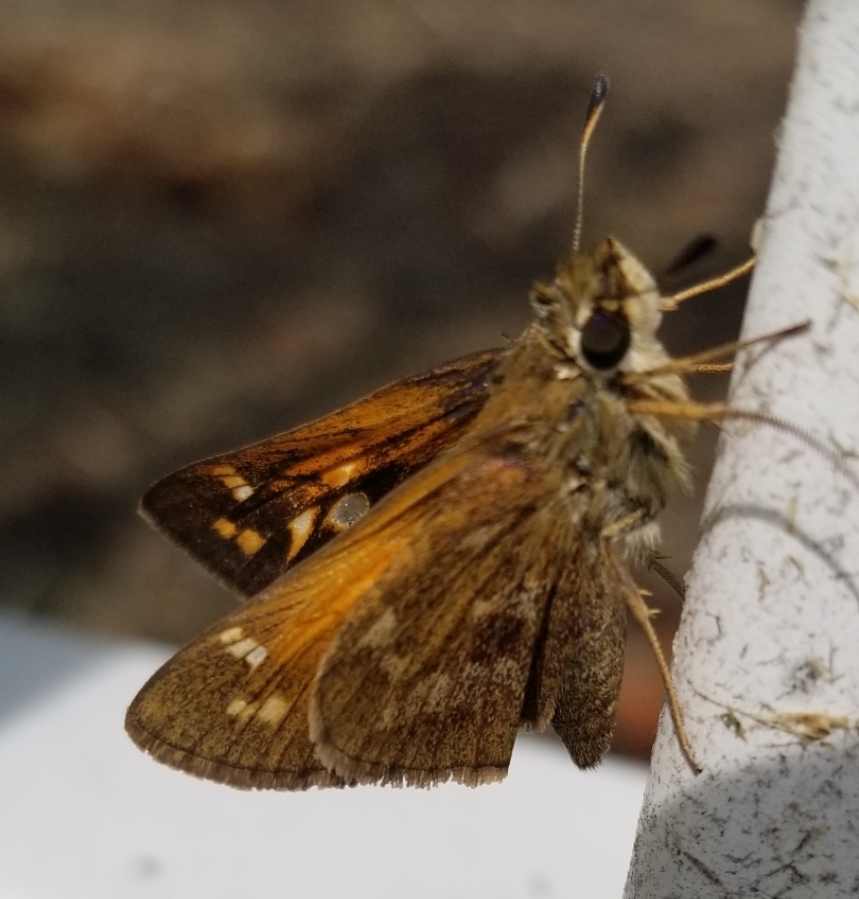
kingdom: Animalia
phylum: Arthropoda
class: Insecta
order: Lepidoptera
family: Hesperiidae
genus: Atalopedes
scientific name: Atalopedes
